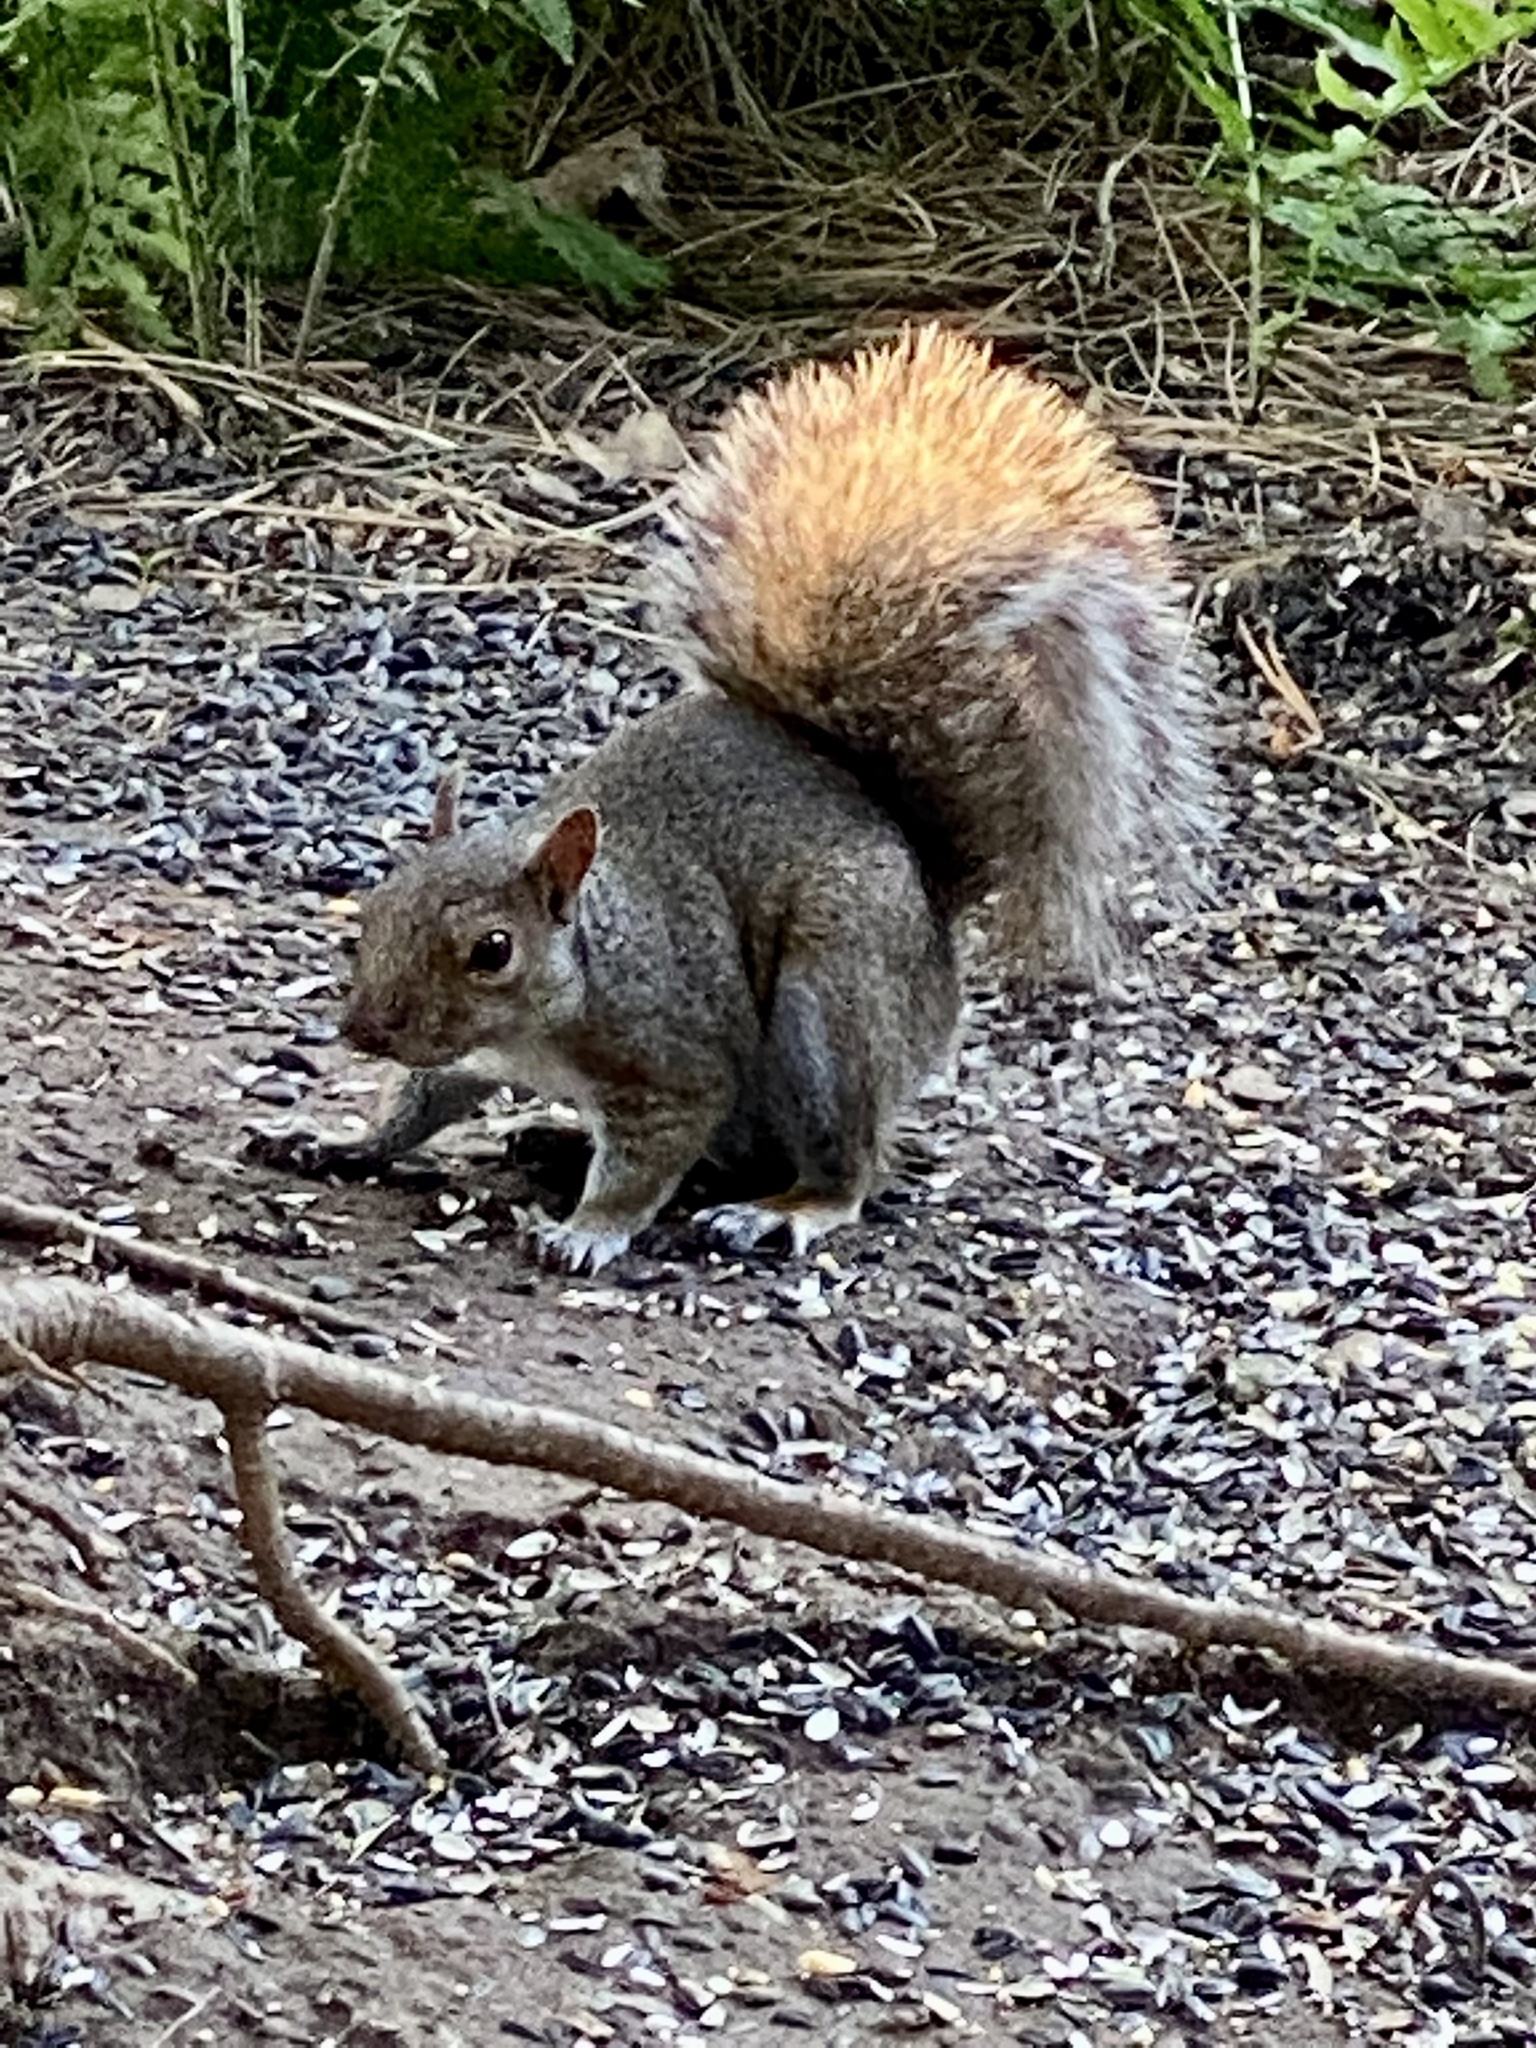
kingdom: Animalia
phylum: Chordata
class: Mammalia
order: Rodentia
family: Sciuridae
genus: Sciurus
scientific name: Sciurus carolinensis
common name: Eastern gray squirrel
